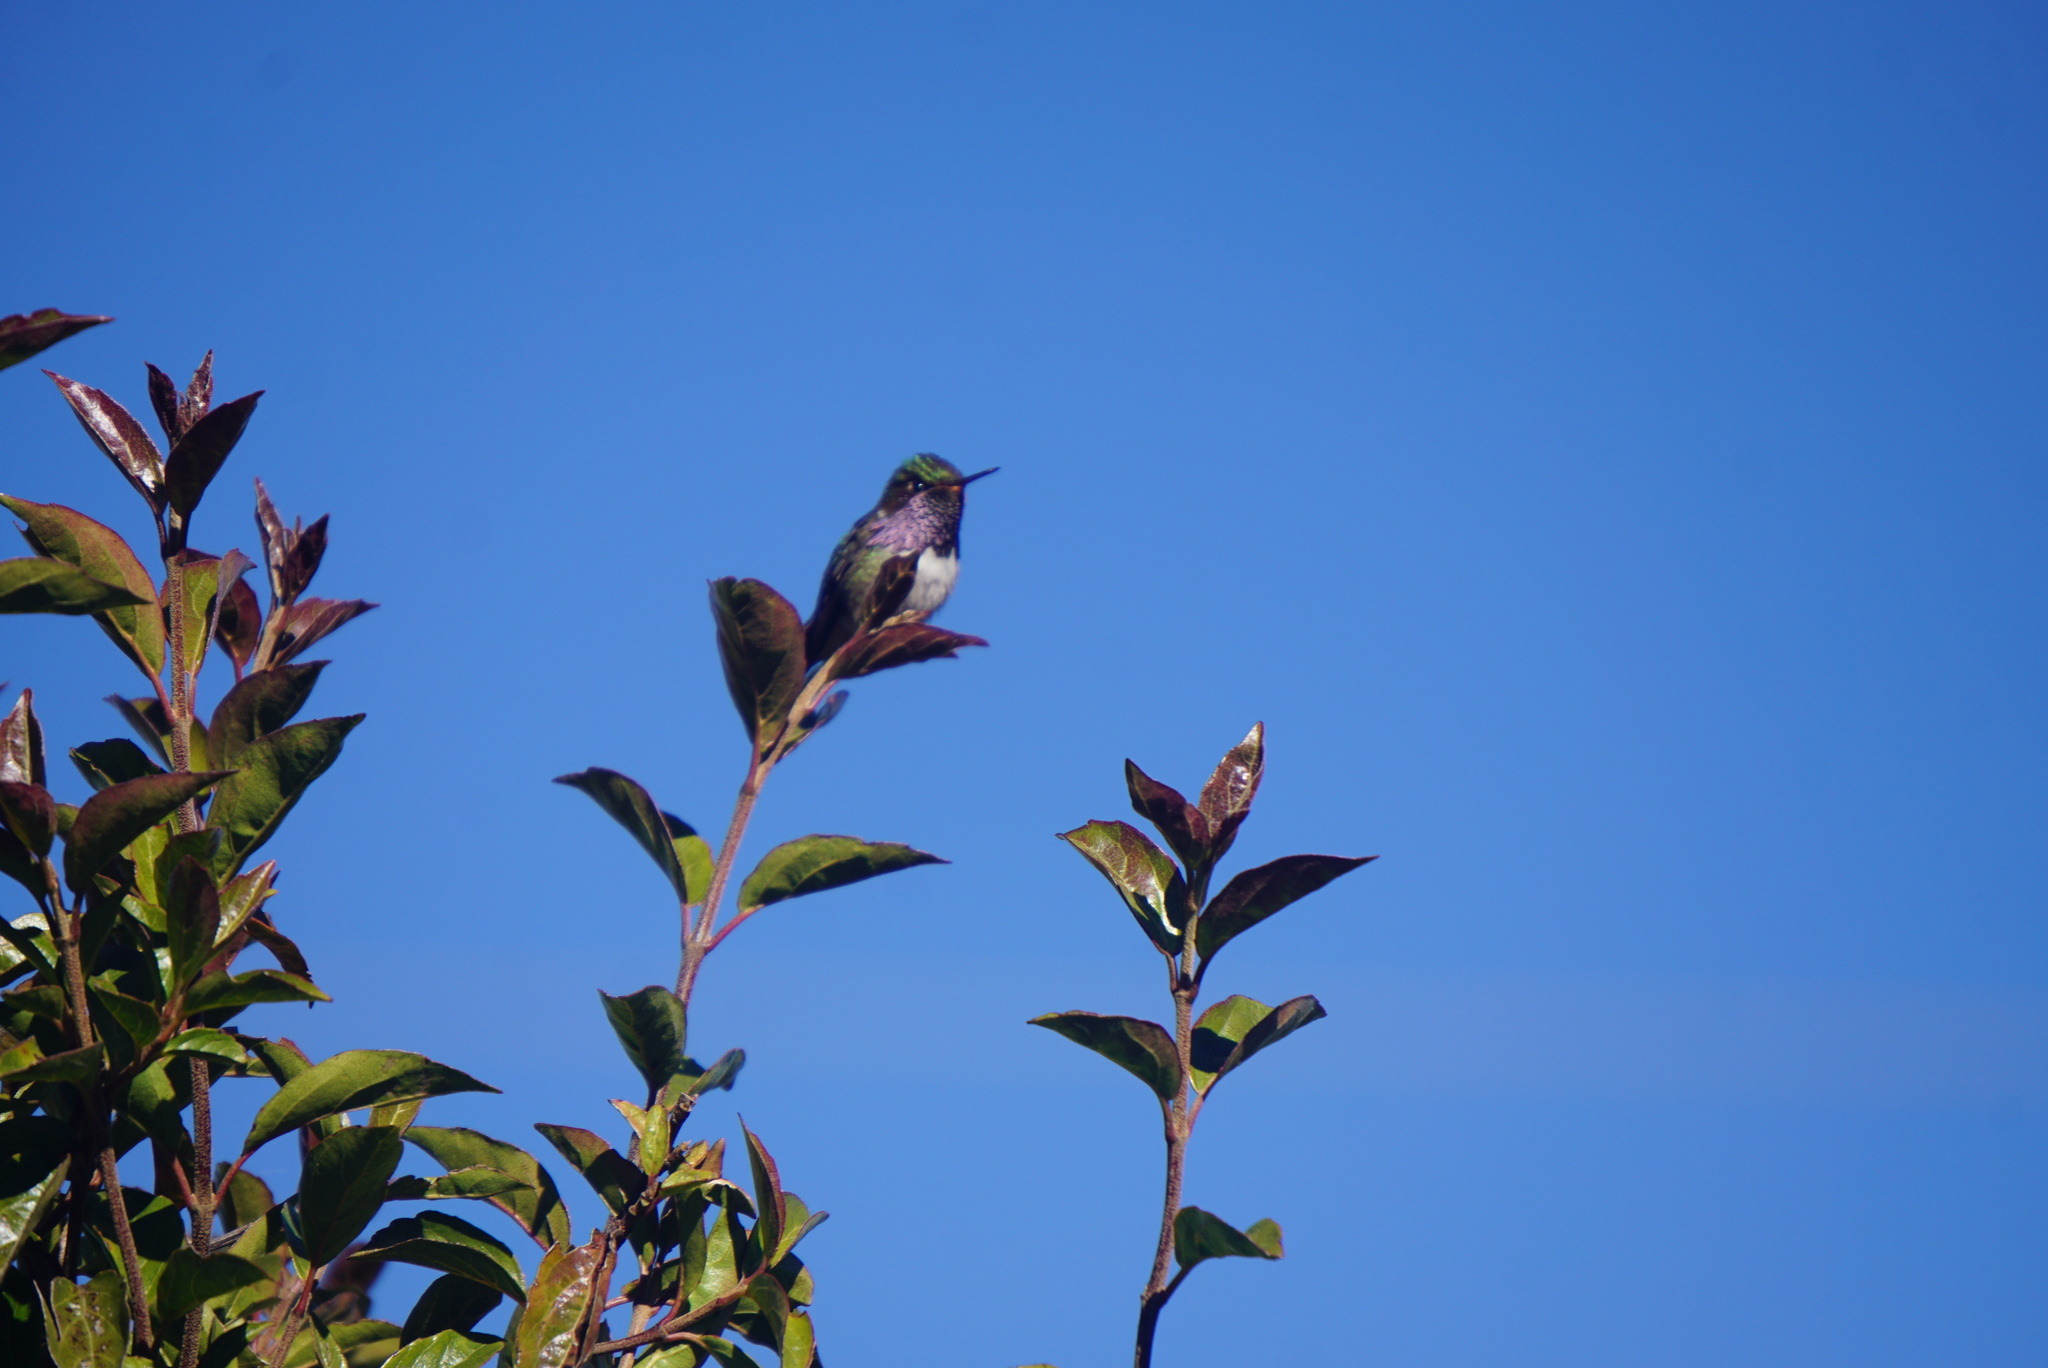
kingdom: Animalia
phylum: Chordata
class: Aves
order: Apodiformes
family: Trochilidae
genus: Selasphorus
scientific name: Selasphorus flammula
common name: Volcano hummingbird
